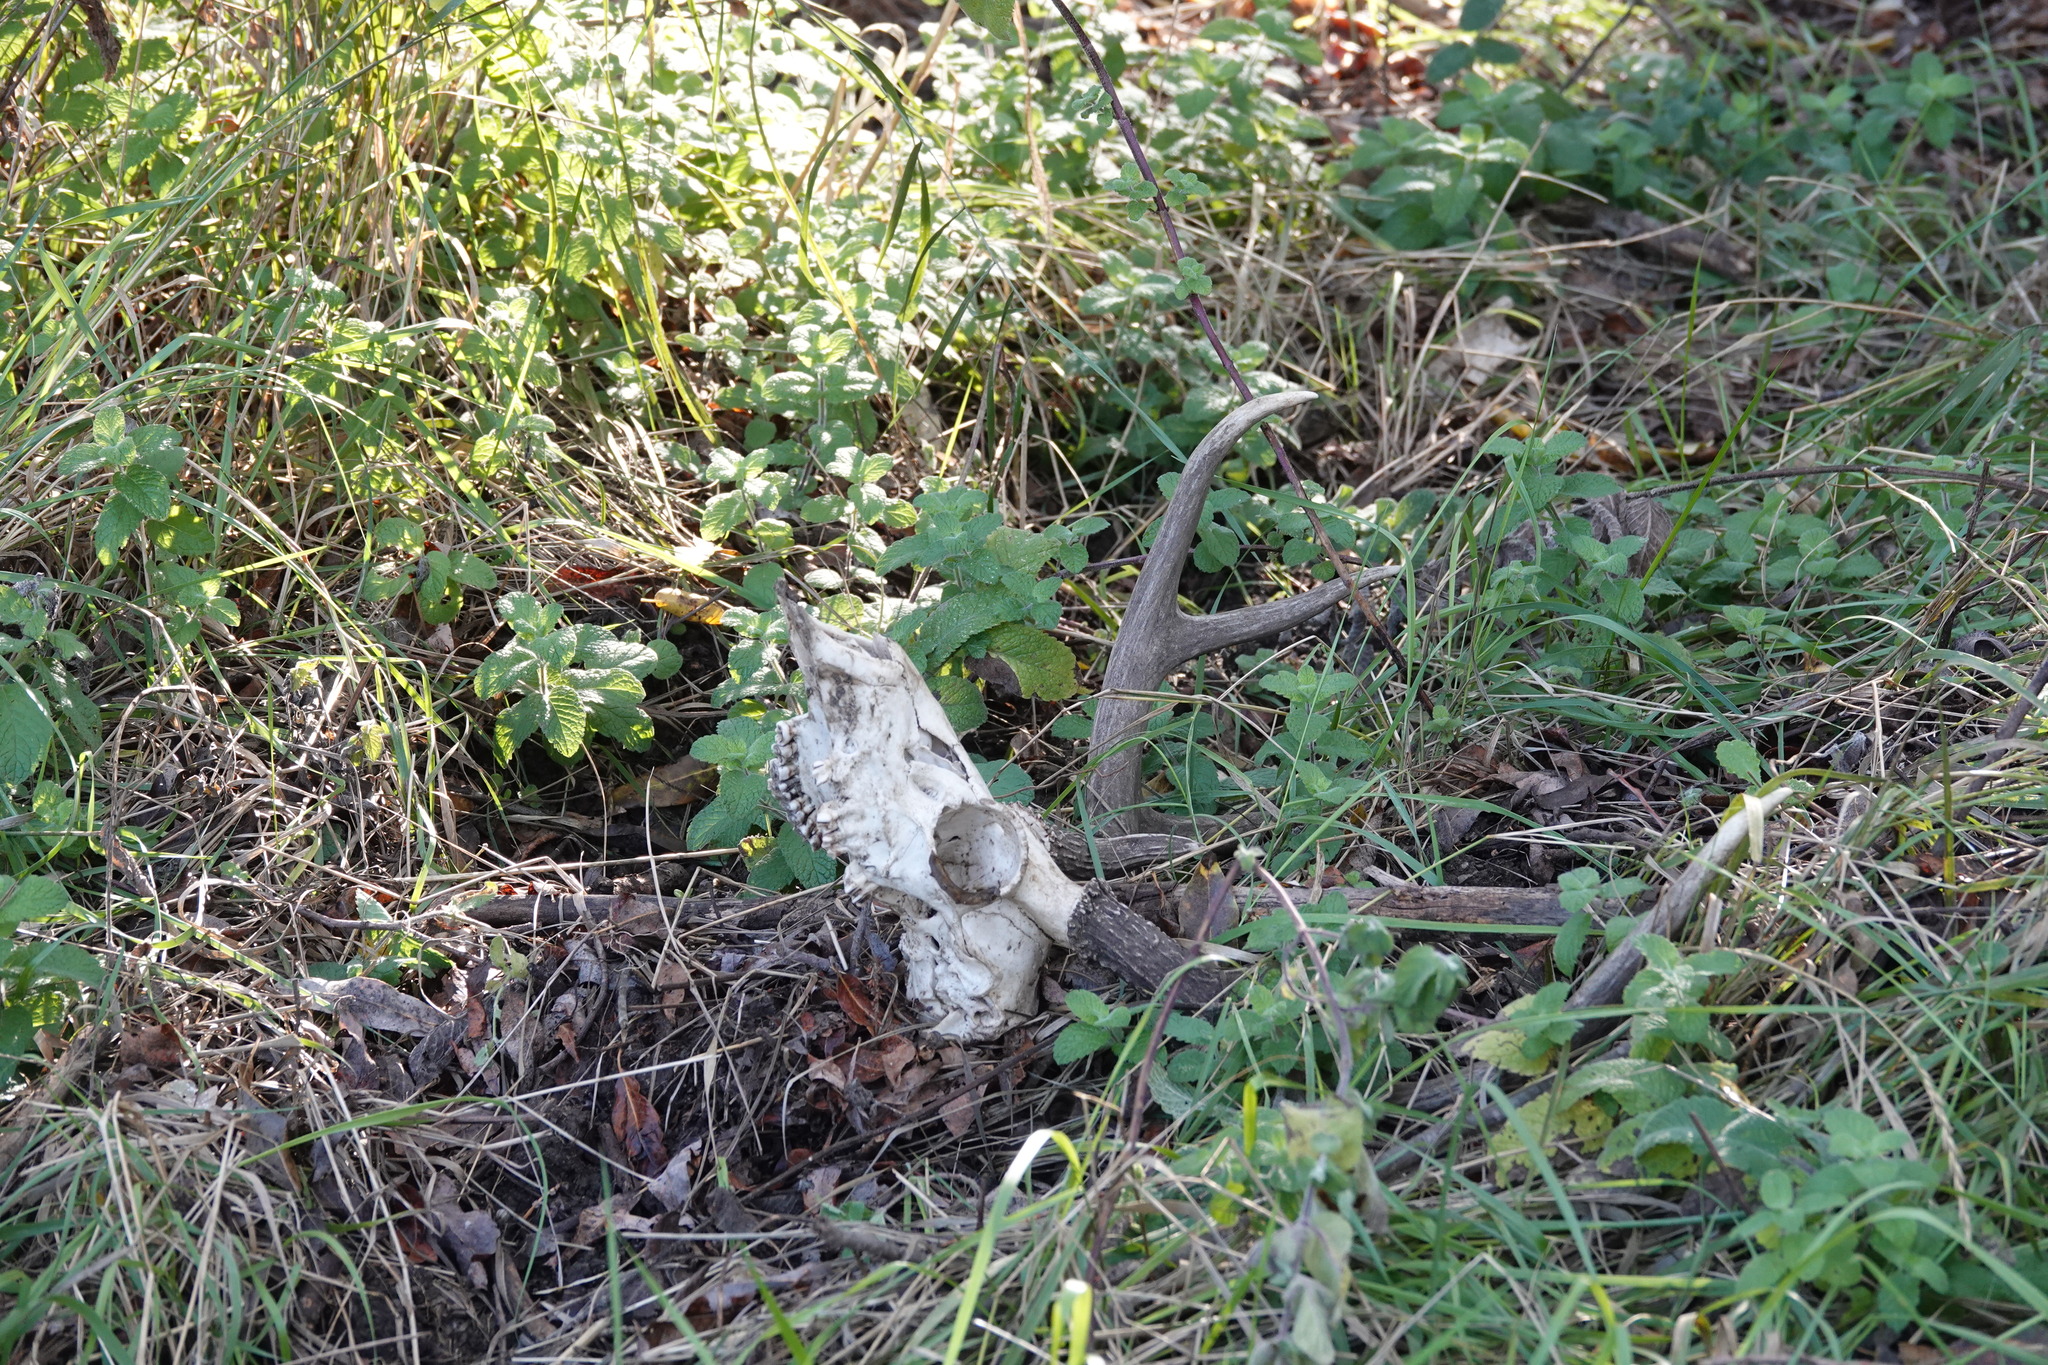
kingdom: Animalia
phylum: Chordata
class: Mammalia
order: Artiodactyla
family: Cervidae
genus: Odocoileus
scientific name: Odocoileus hemionus
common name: Mule deer
